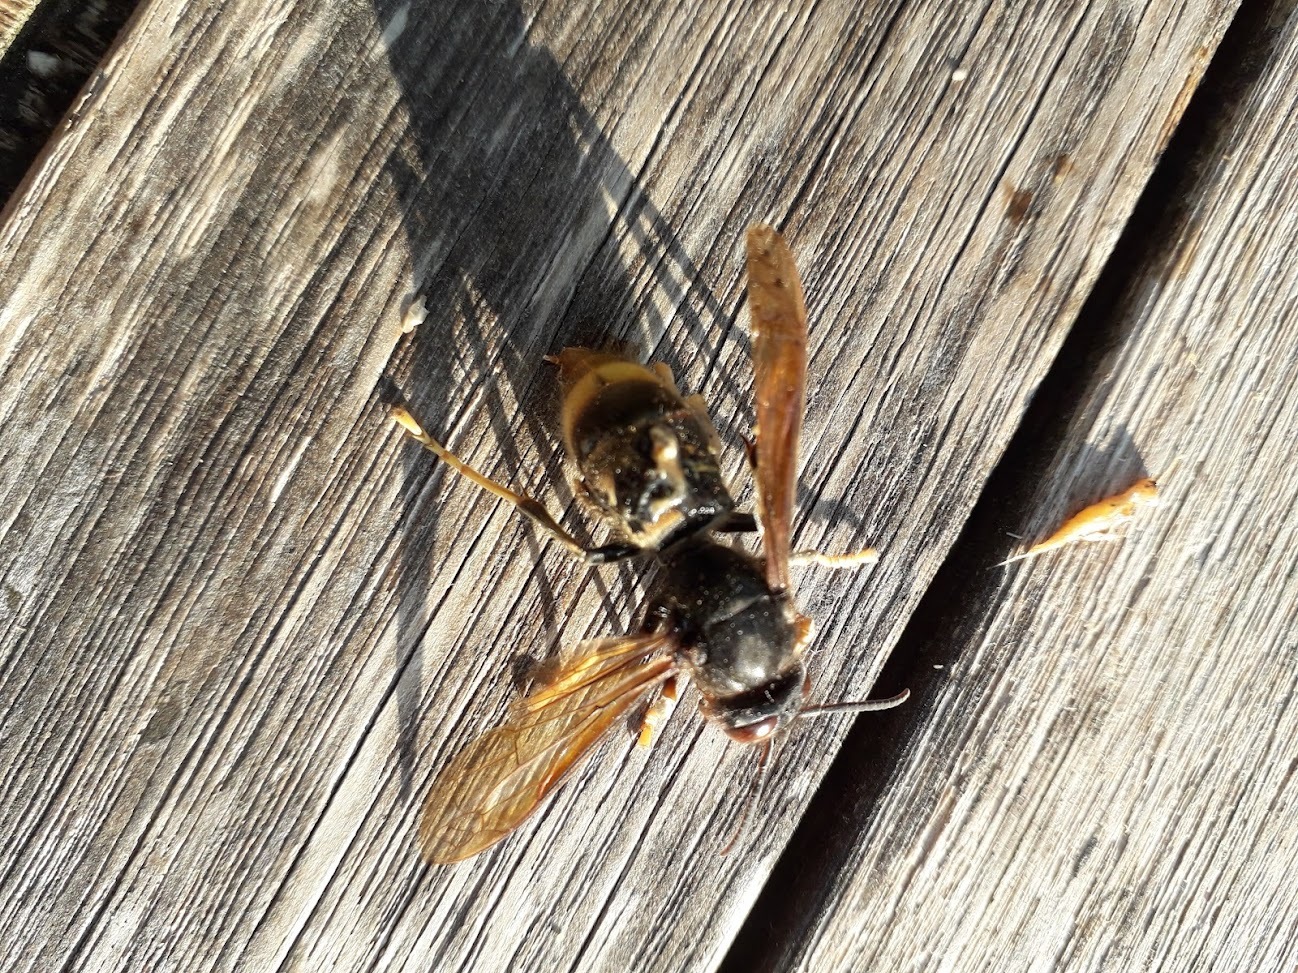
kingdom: Animalia
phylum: Arthropoda
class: Insecta
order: Hymenoptera
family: Vespidae
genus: Vespa
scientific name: Vespa velutina
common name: Asian hornet
